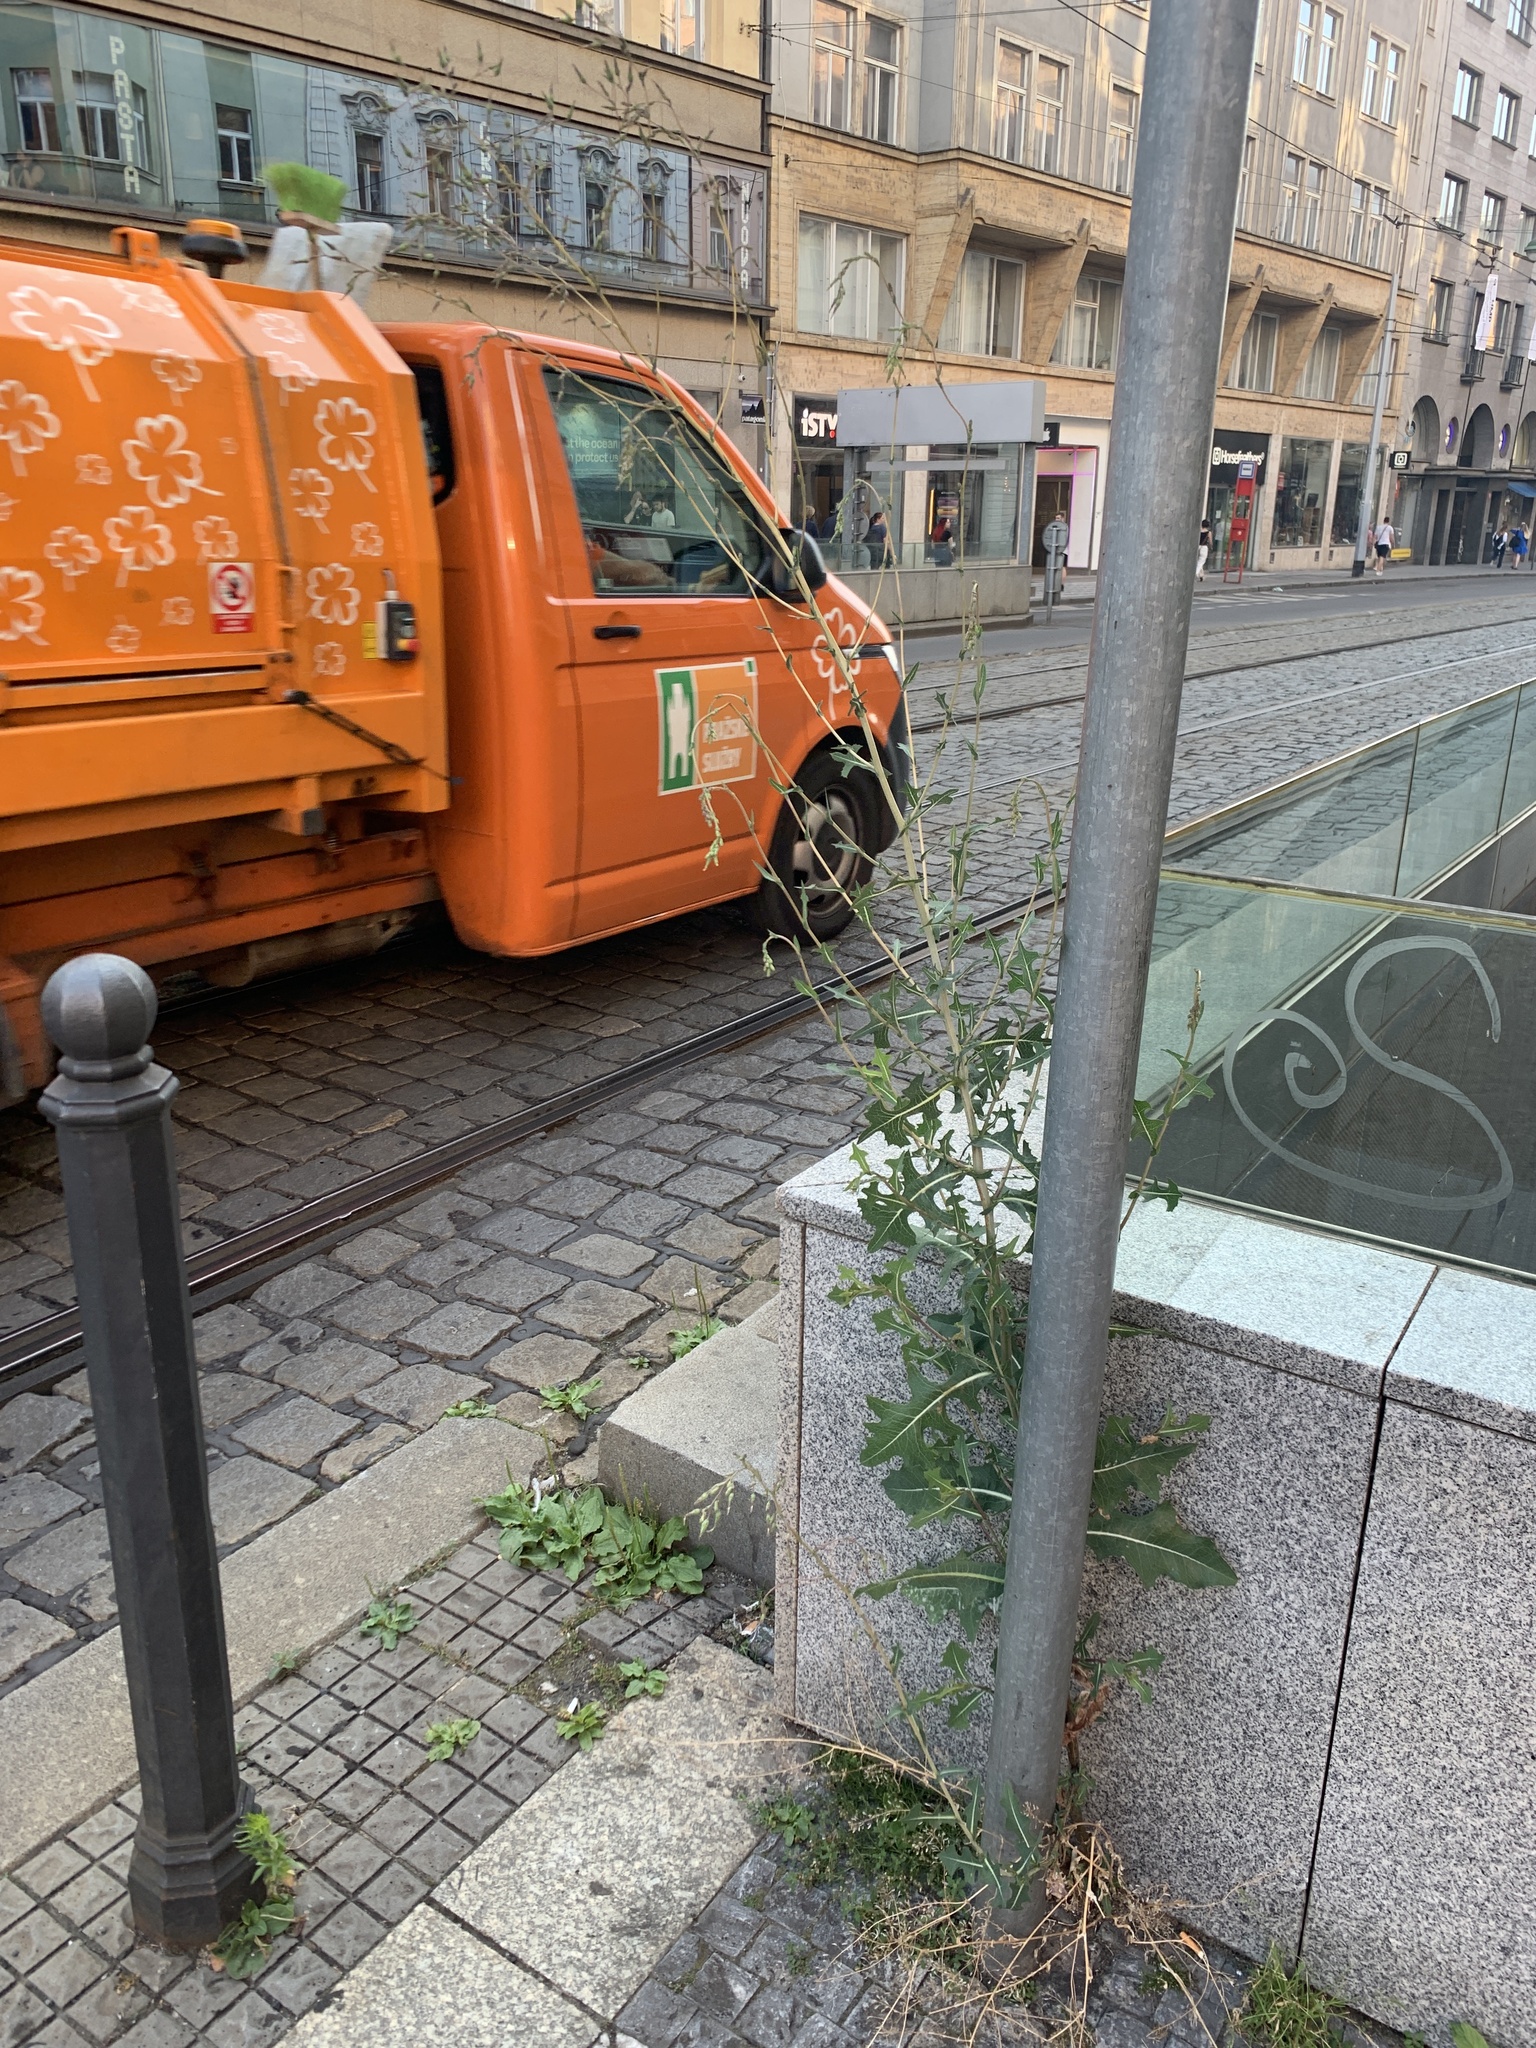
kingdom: Plantae
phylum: Tracheophyta
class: Magnoliopsida
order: Asterales
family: Asteraceae
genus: Lactuca
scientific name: Lactuca serriola
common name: Prickly lettuce
